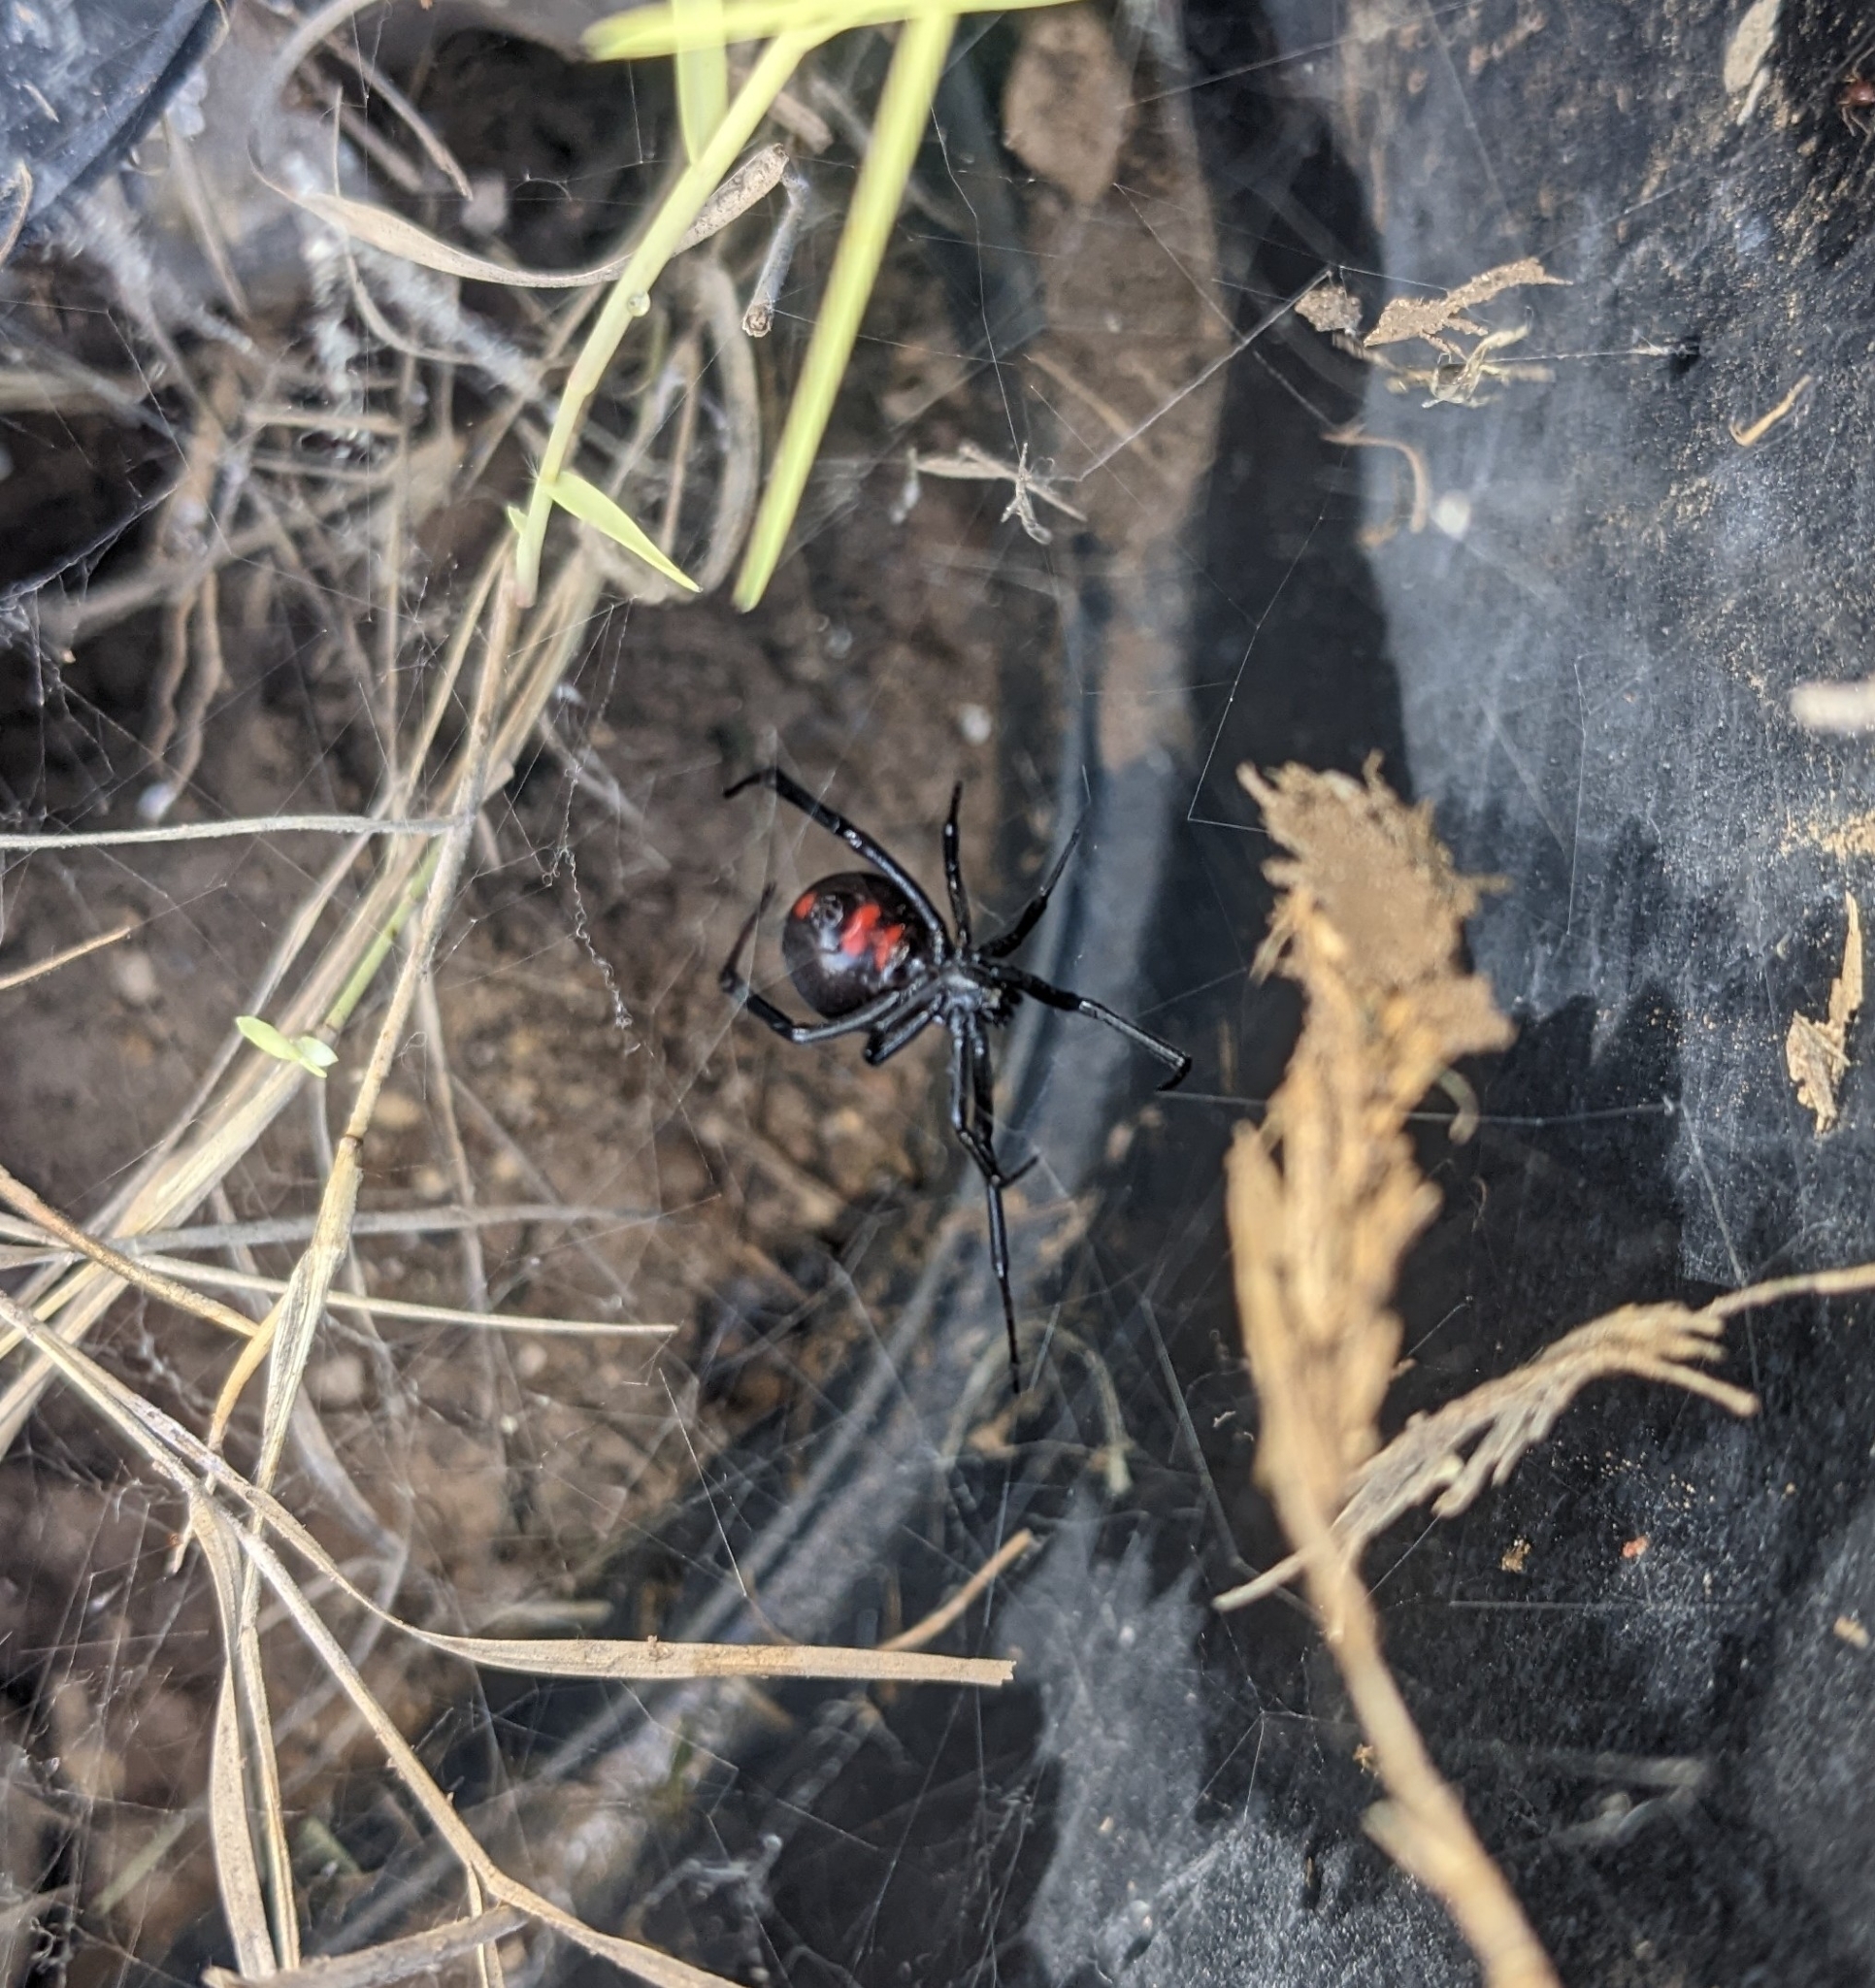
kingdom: Animalia
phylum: Arthropoda
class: Arachnida
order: Araneae
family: Theridiidae
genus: Latrodectus
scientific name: Latrodectus mactans
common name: Cobweb spiders
